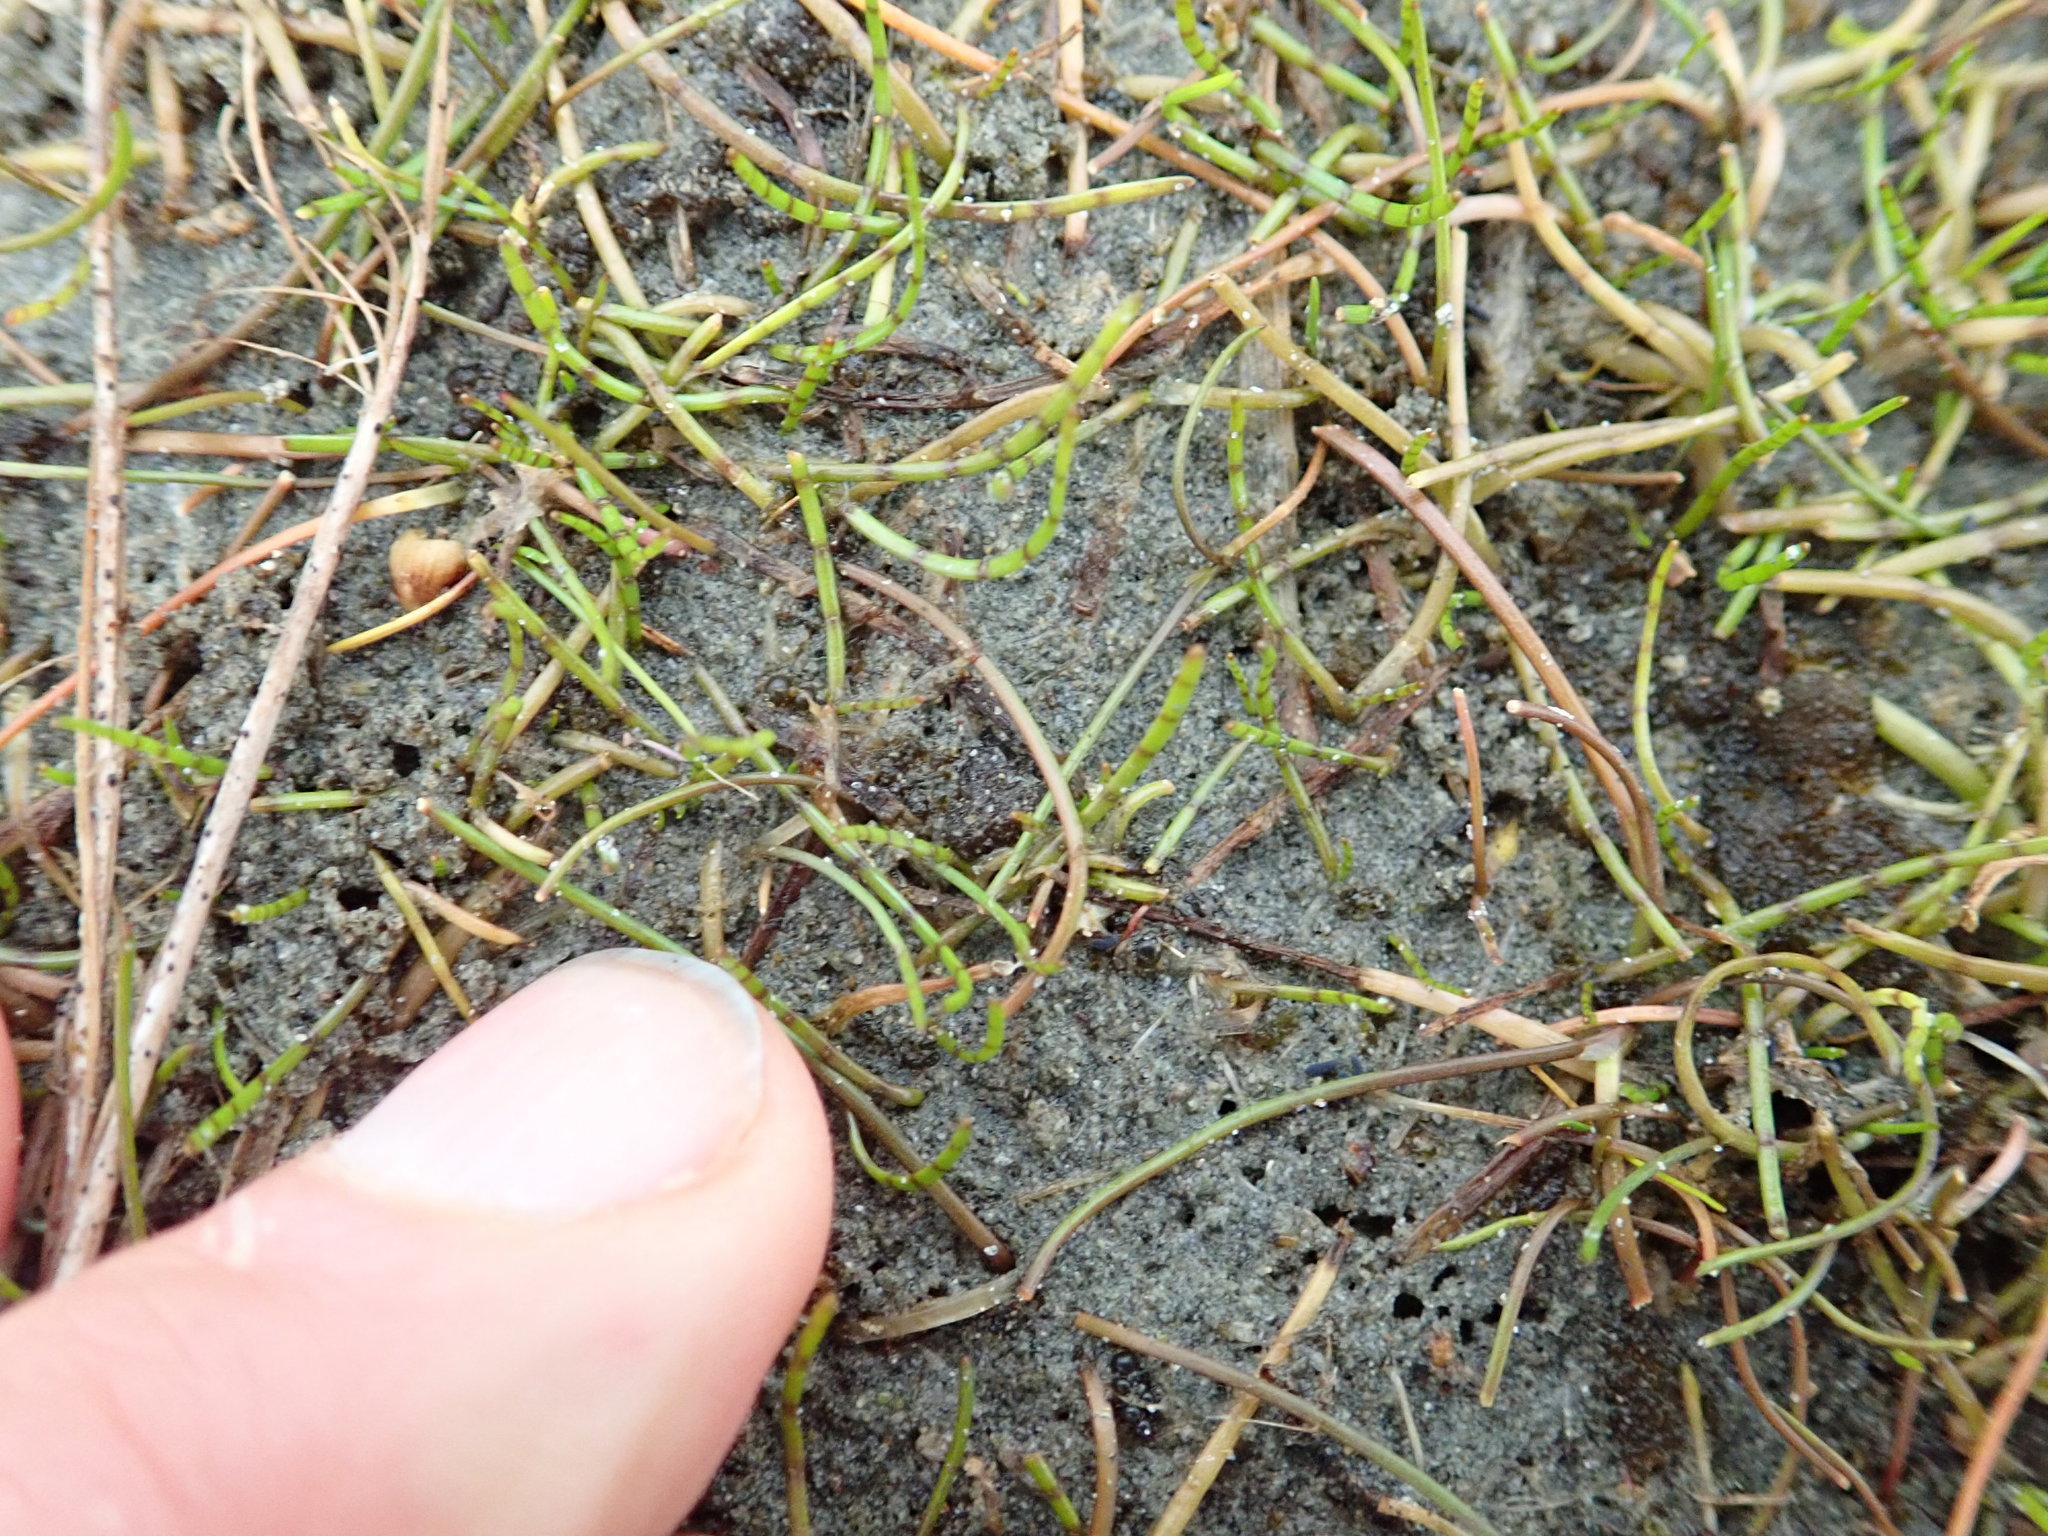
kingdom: Plantae
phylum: Tracheophyta
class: Magnoliopsida
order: Apiales
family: Apiaceae
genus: Lilaeopsis
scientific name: Lilaeopsis novae-zelandiae
